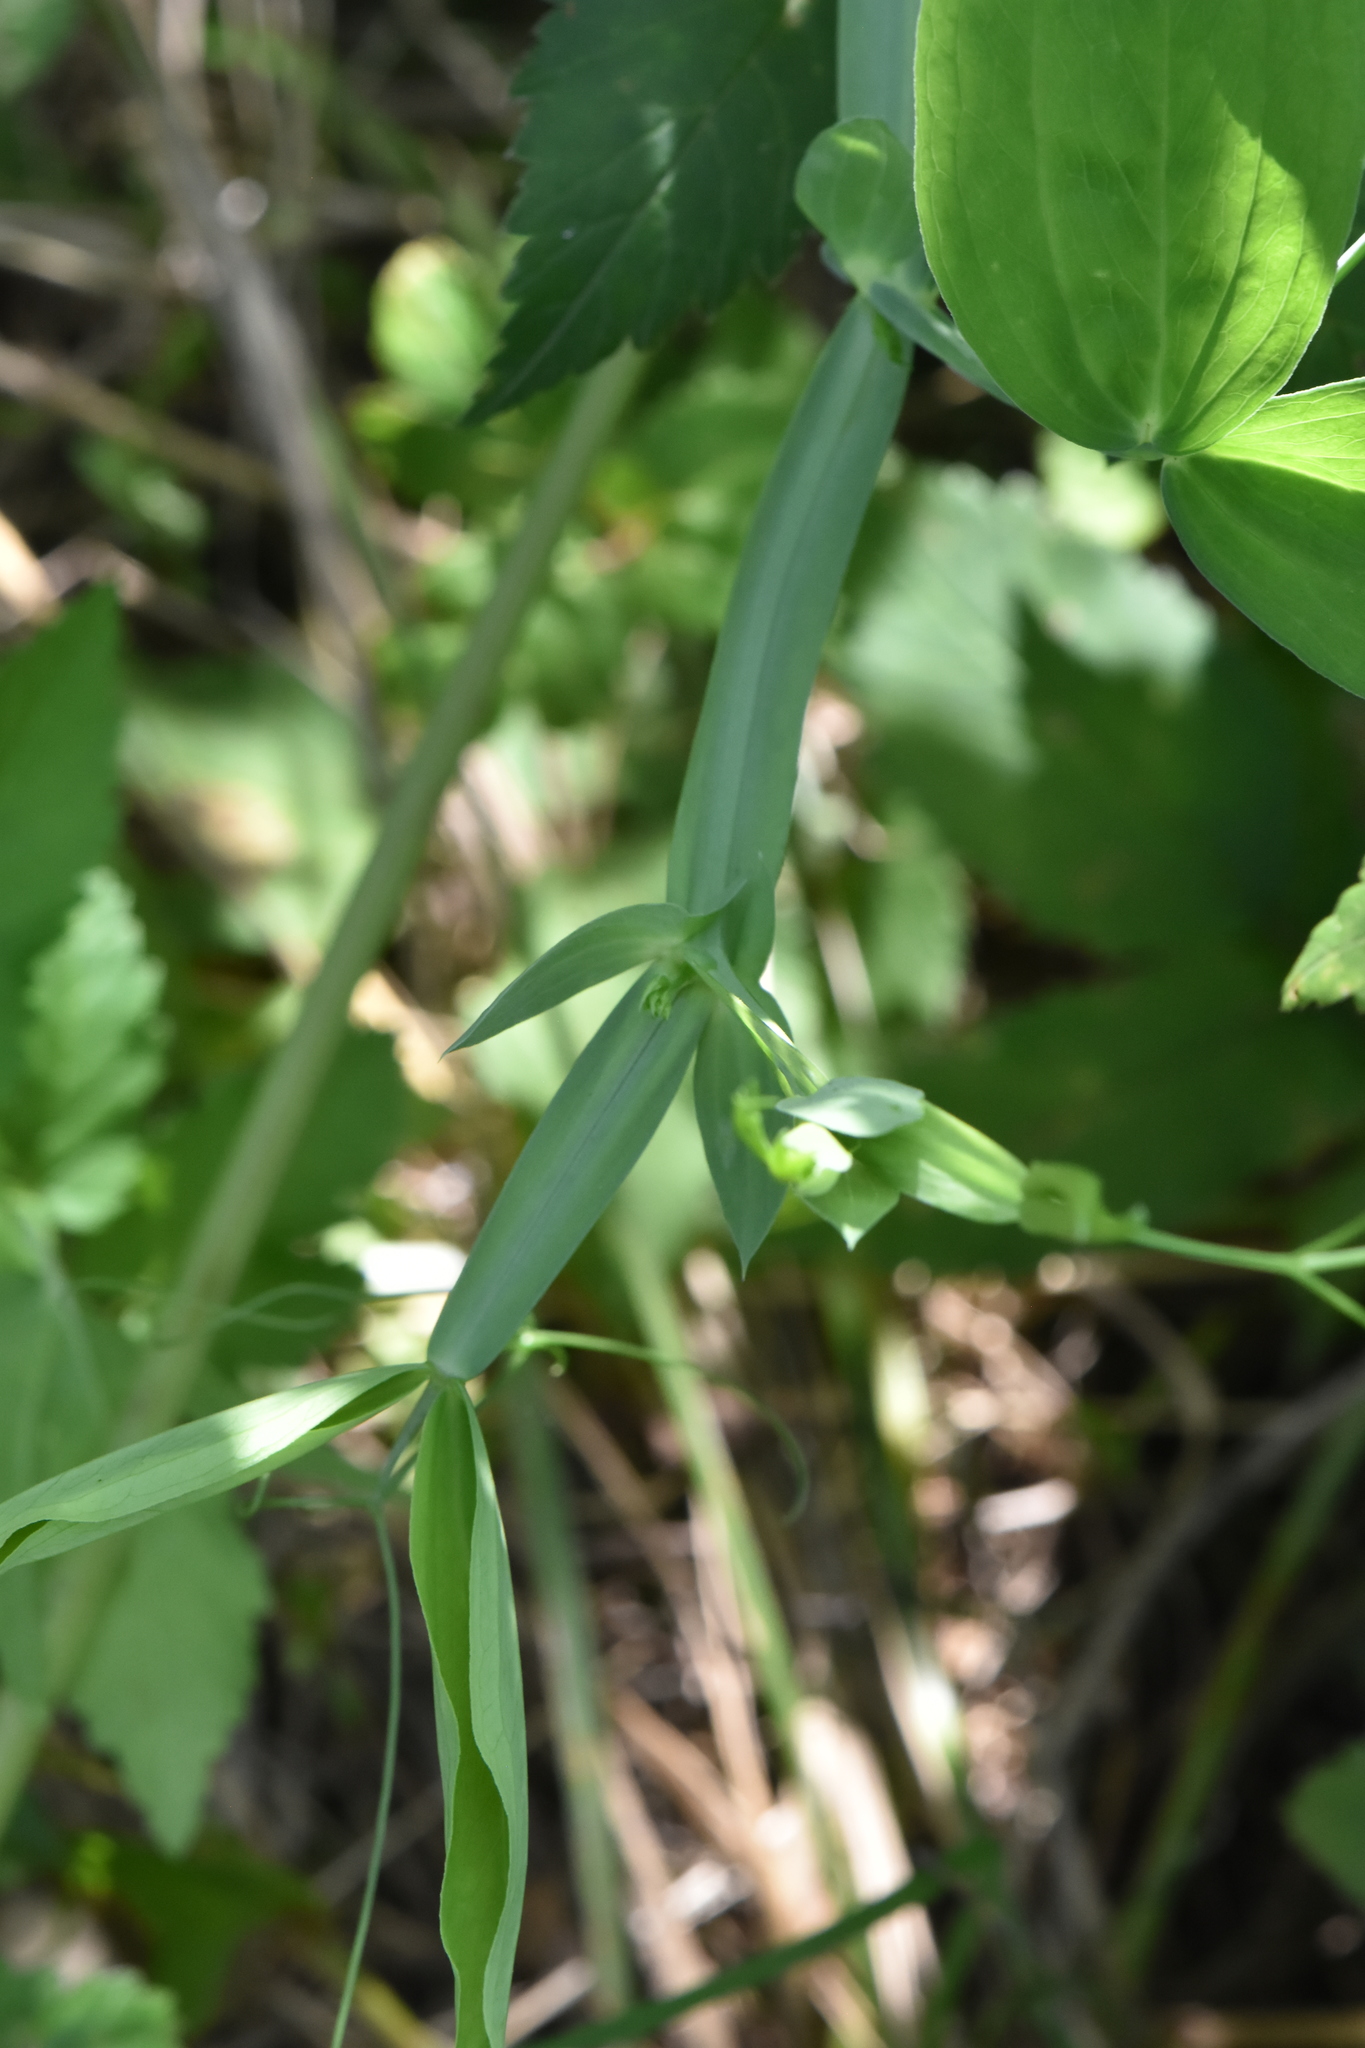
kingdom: Plantae
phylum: Tracheophyta
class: Magnoliopsida
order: Fabales
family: Fabaceae
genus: Lathyrus
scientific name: Lathyrus sylvestris
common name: Flat pea
